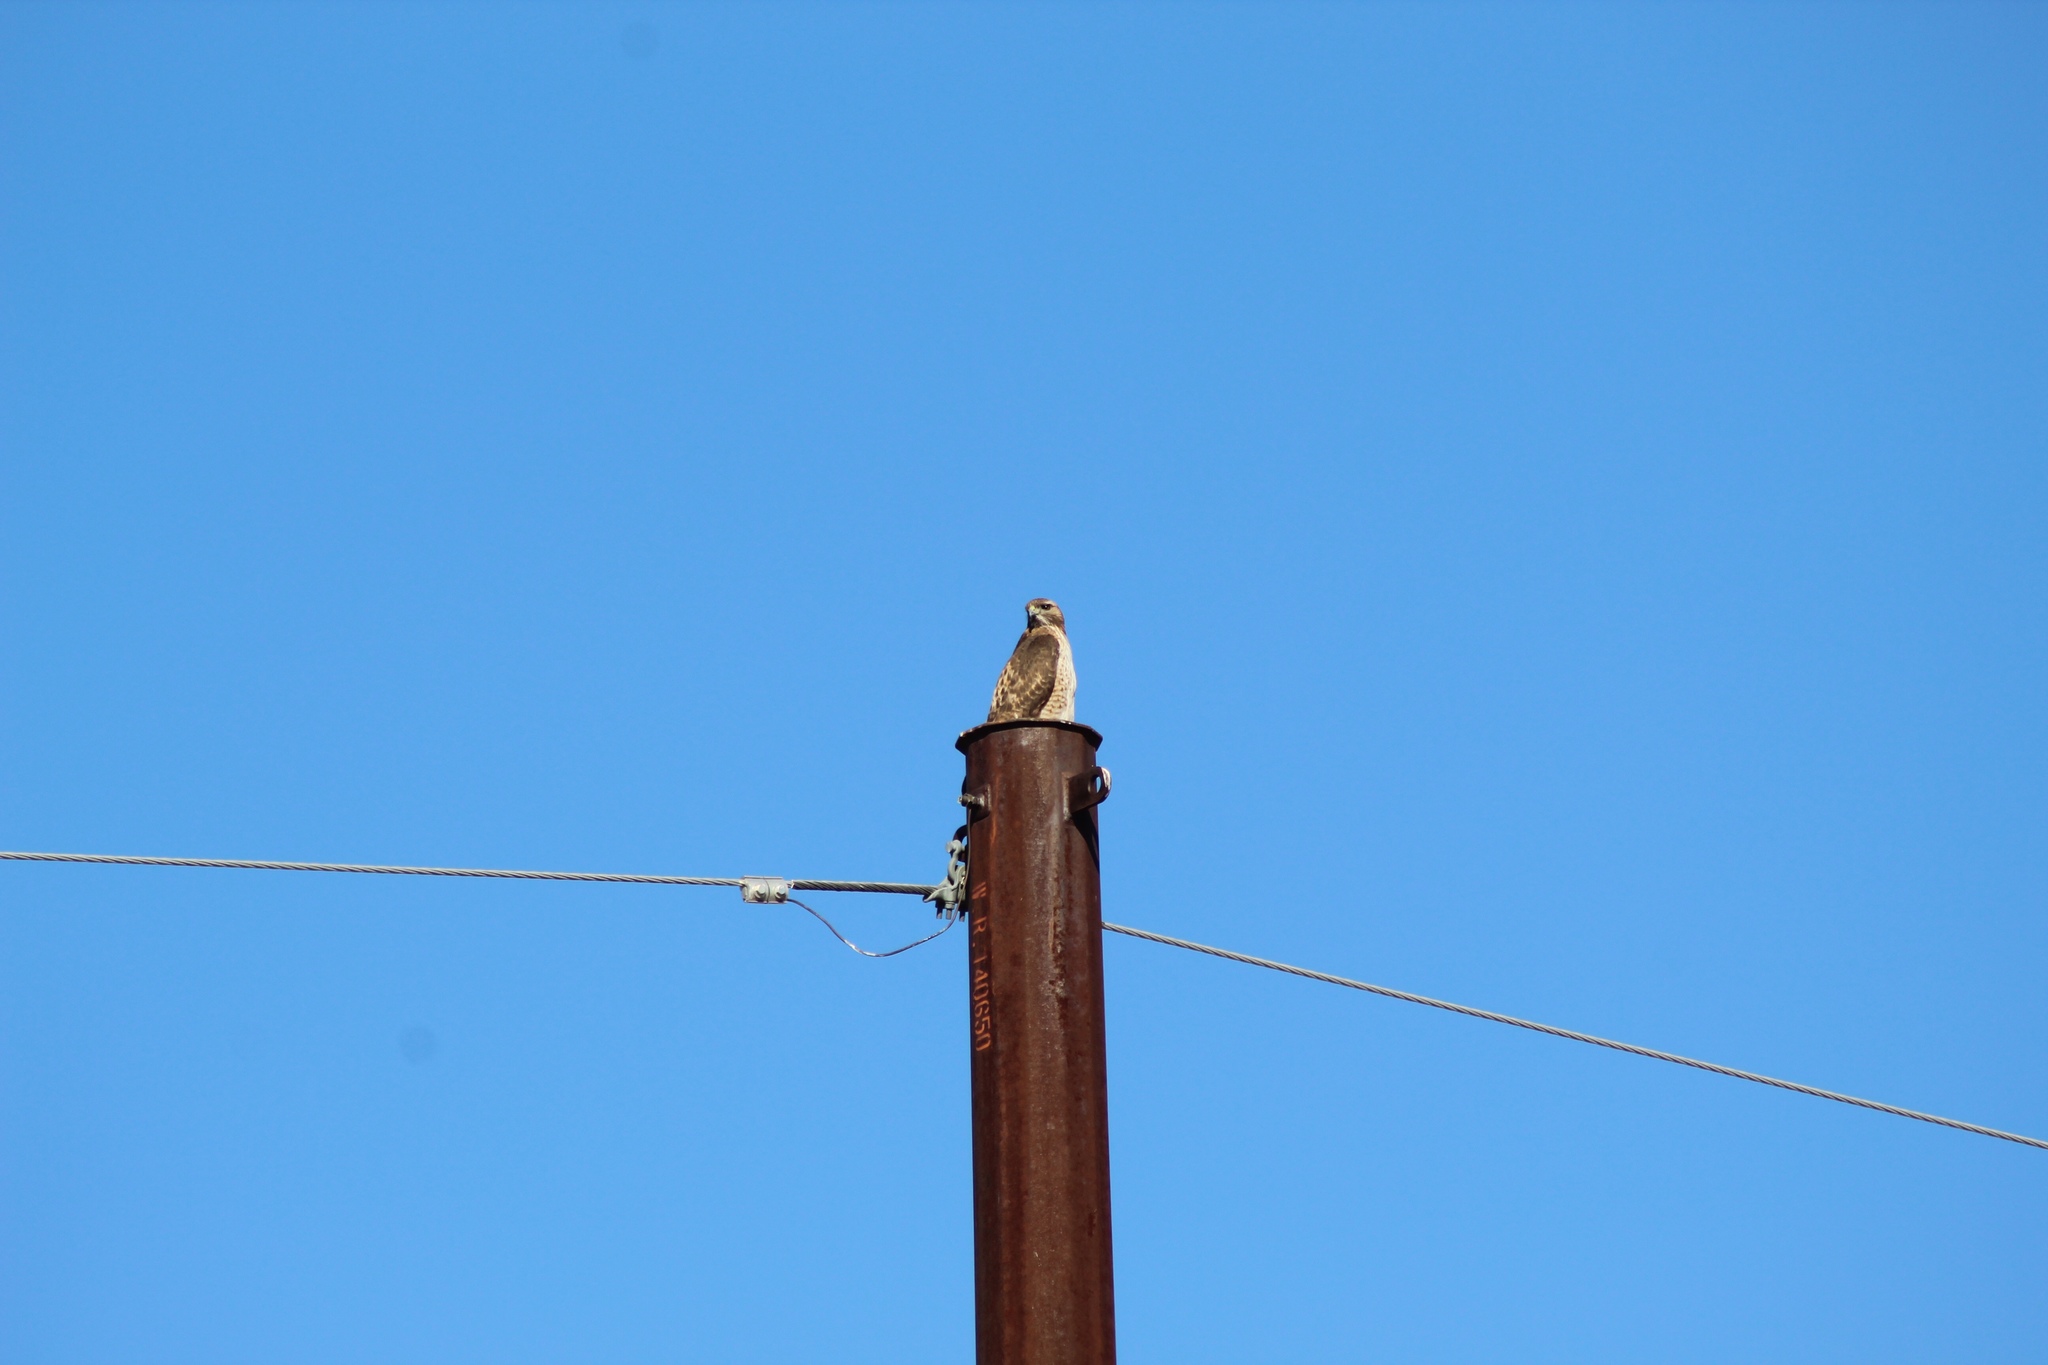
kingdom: Animalia
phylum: Chordata
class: Aves
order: Accipitriformes
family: Accipitridae
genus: Buteo
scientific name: Buteo jamaicensis
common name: Red-tailed hawk
